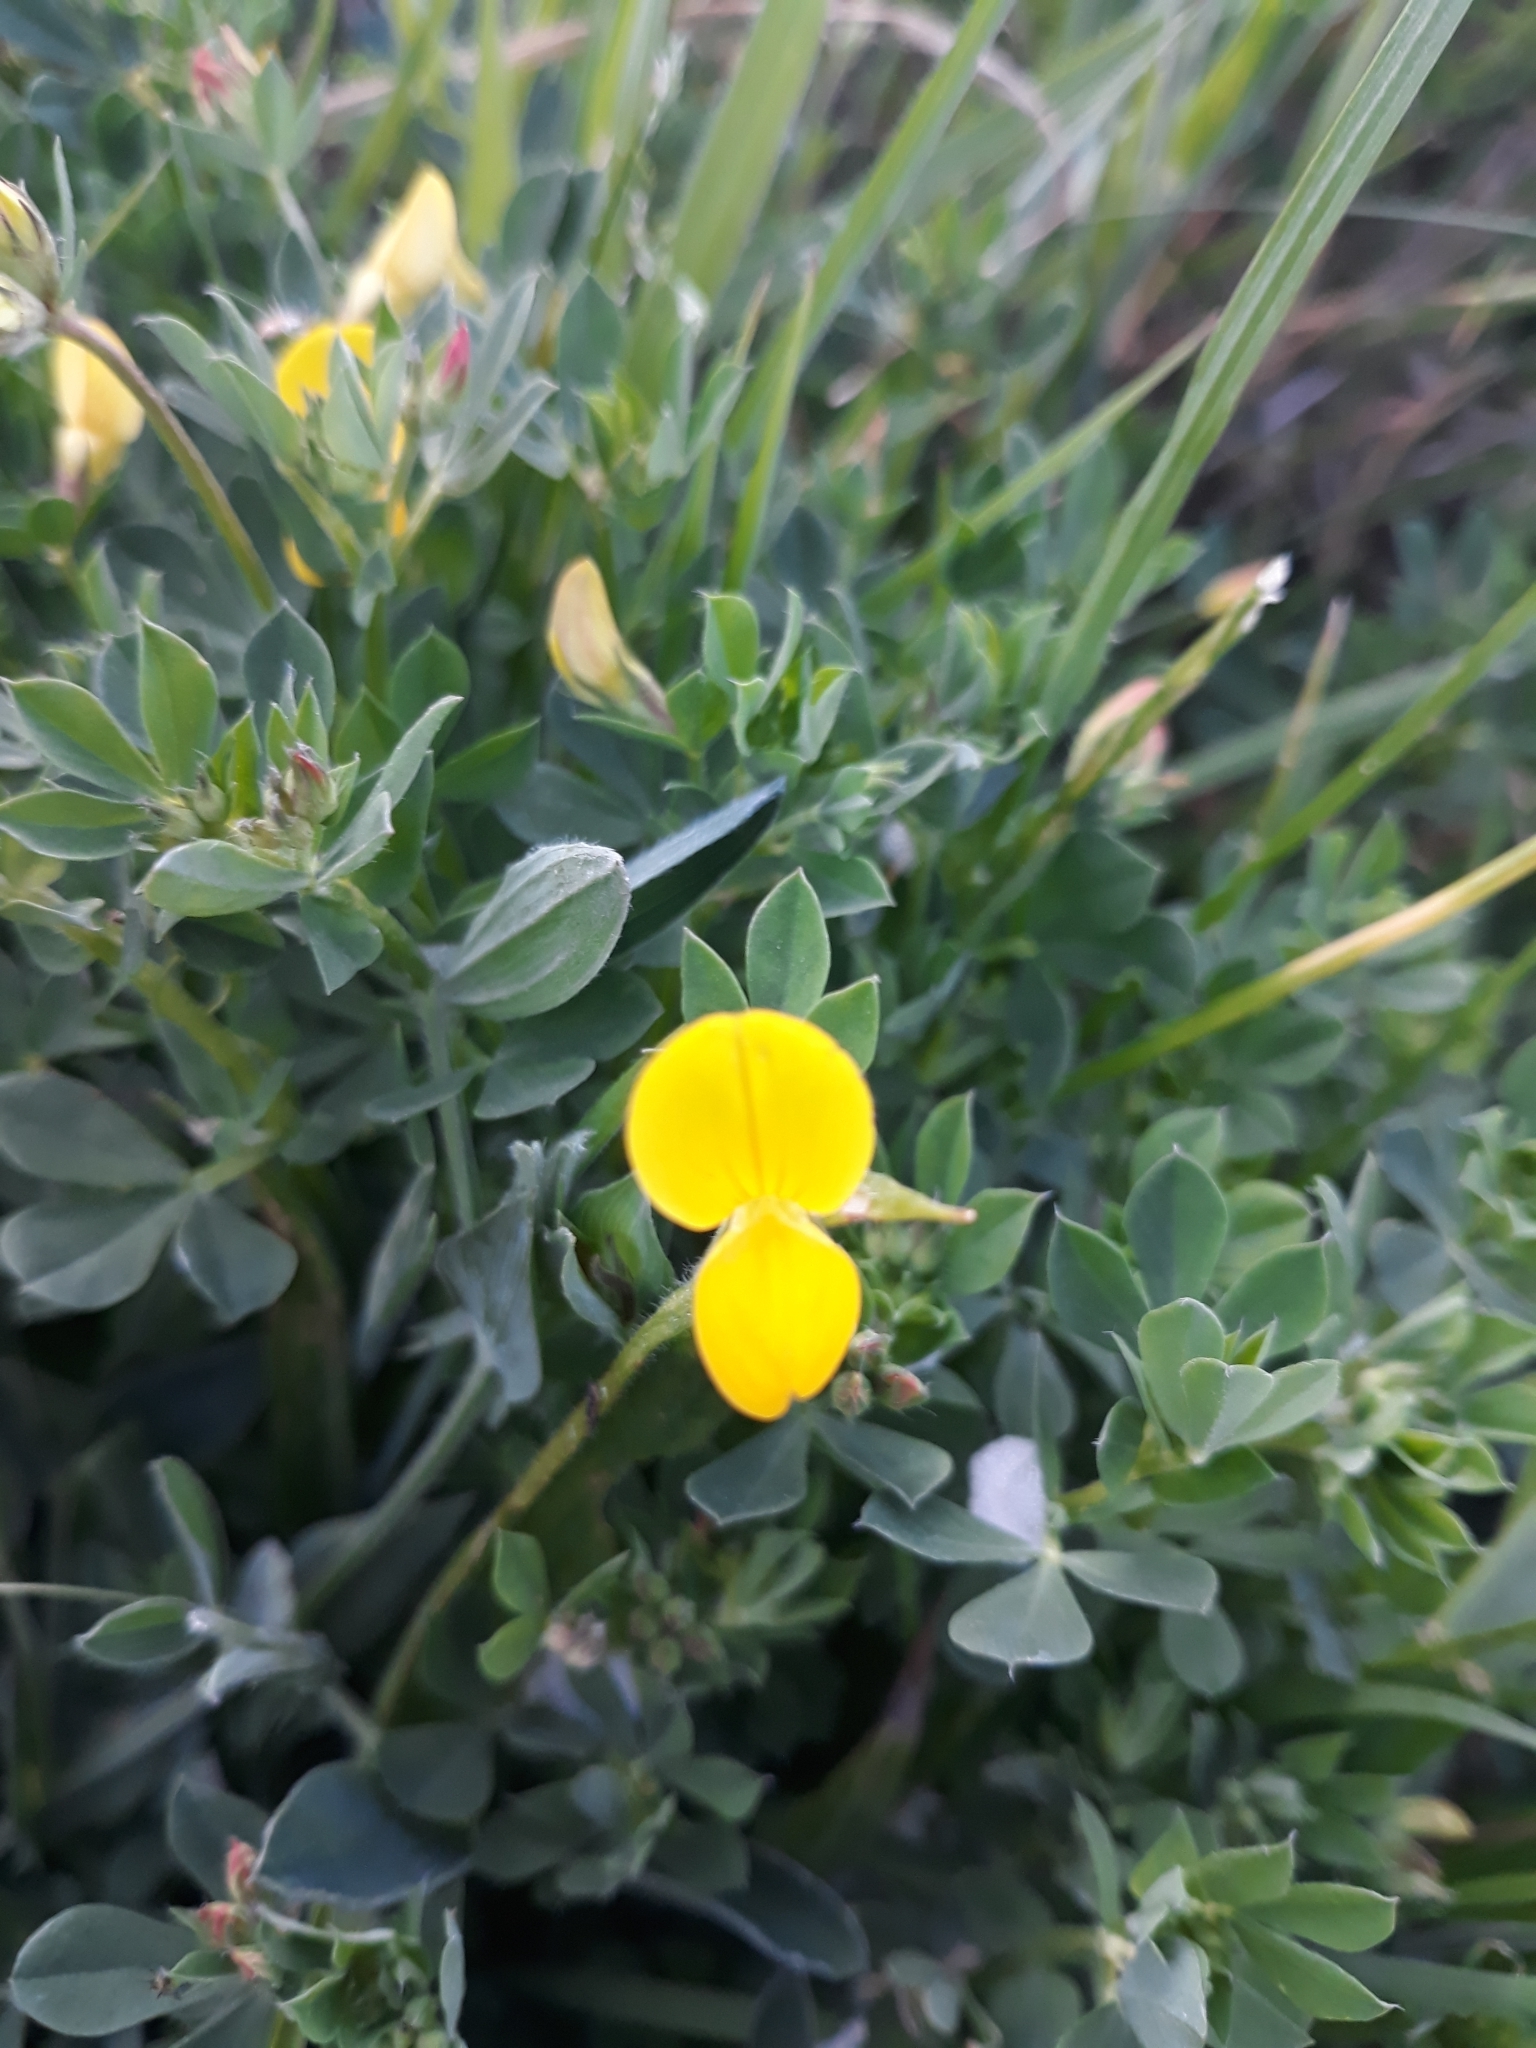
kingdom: Plantae
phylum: Tracheophyta
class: Magnoliopsida
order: Fabales
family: Fabaceae
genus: Lotus
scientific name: Lotus corniculatus
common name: Common bird's-foot-trefoil
